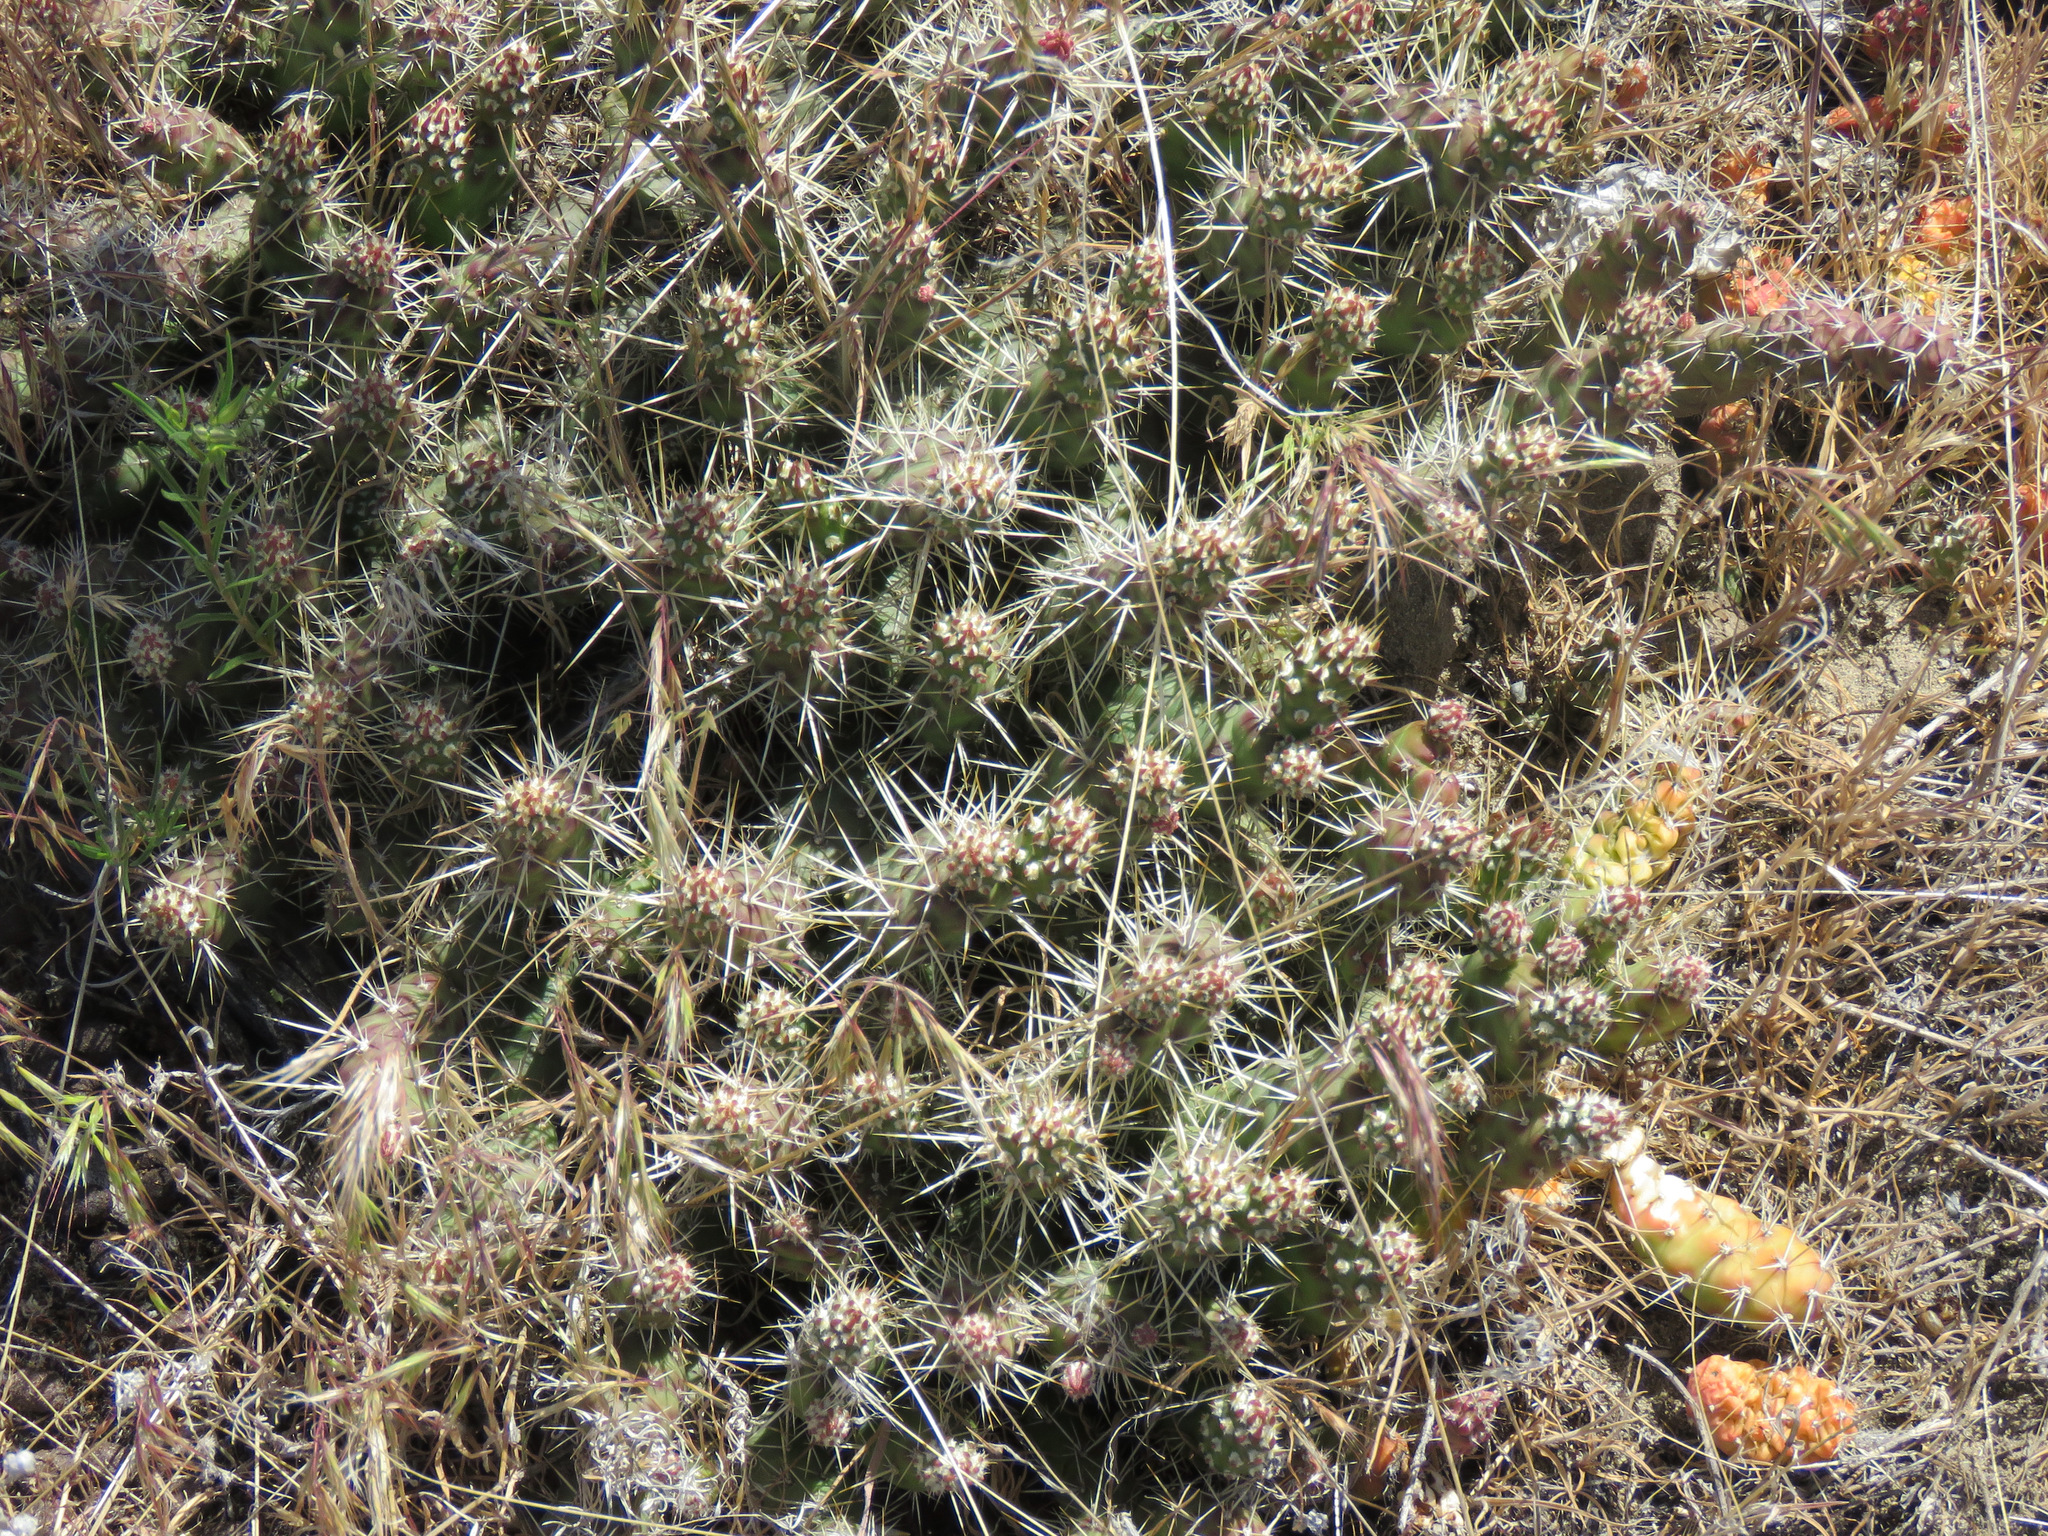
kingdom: Plantae
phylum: Tracheophyta
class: Magnoliopsida
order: Caryophyllales
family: Cactaceae
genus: Opuntia
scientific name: Opuntia fragilis
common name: Brittle cactus
